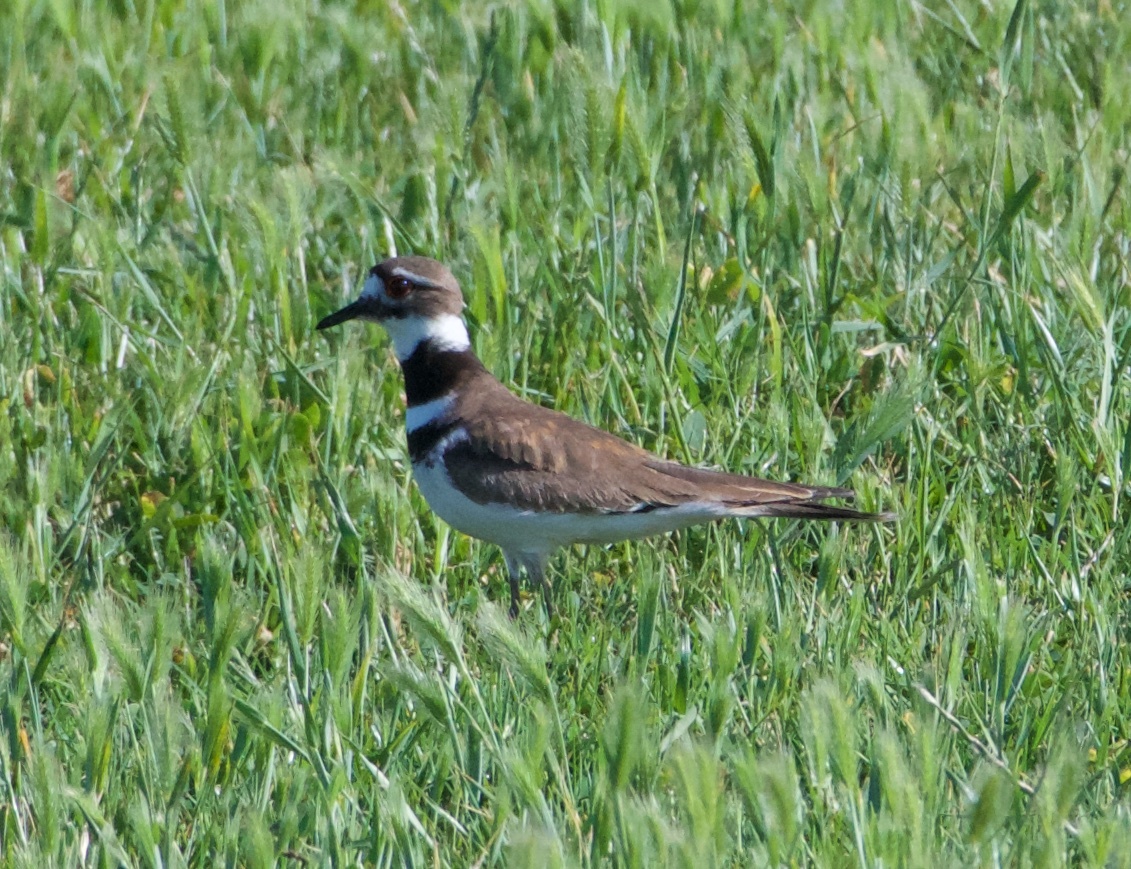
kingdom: Animalia
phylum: Chordata
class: Aves
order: Charadriiformes
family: Charadriidae
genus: Charadrius
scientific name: Charadrius vociferus
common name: Killdeer
